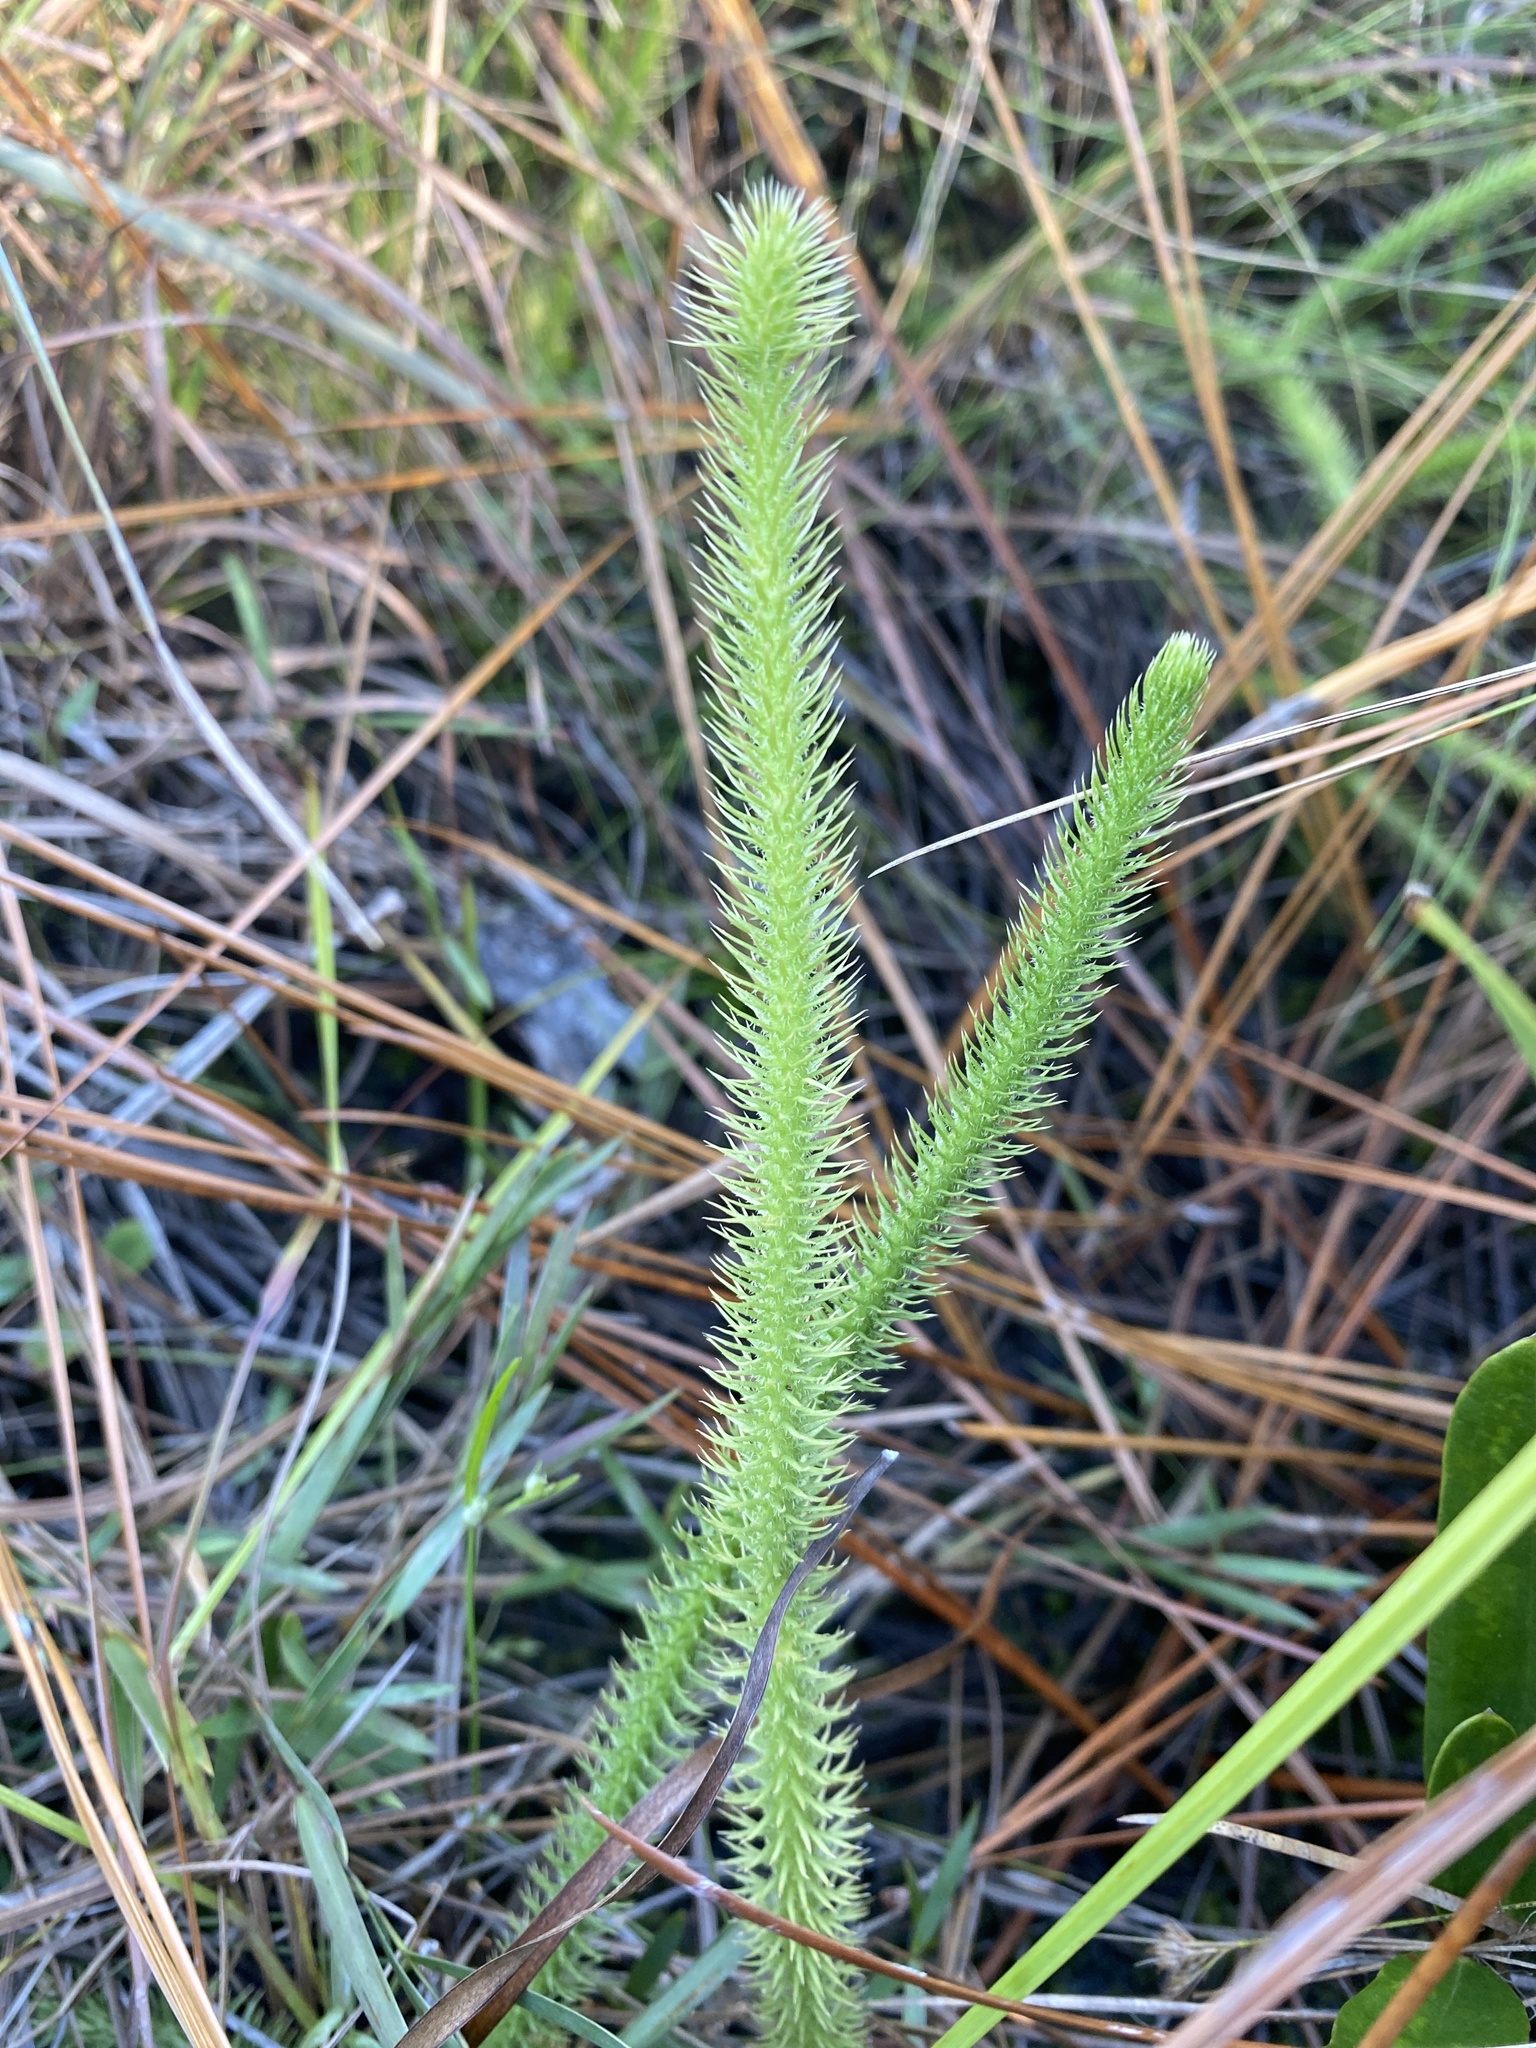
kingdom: Plantae
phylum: Tracheophyta
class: Lycopodiopsida
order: Lycopodiales
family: Lycopodiaceae
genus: Lycopodiella
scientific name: Lycopodiella alopecuroides
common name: Foxtail clubmoss
